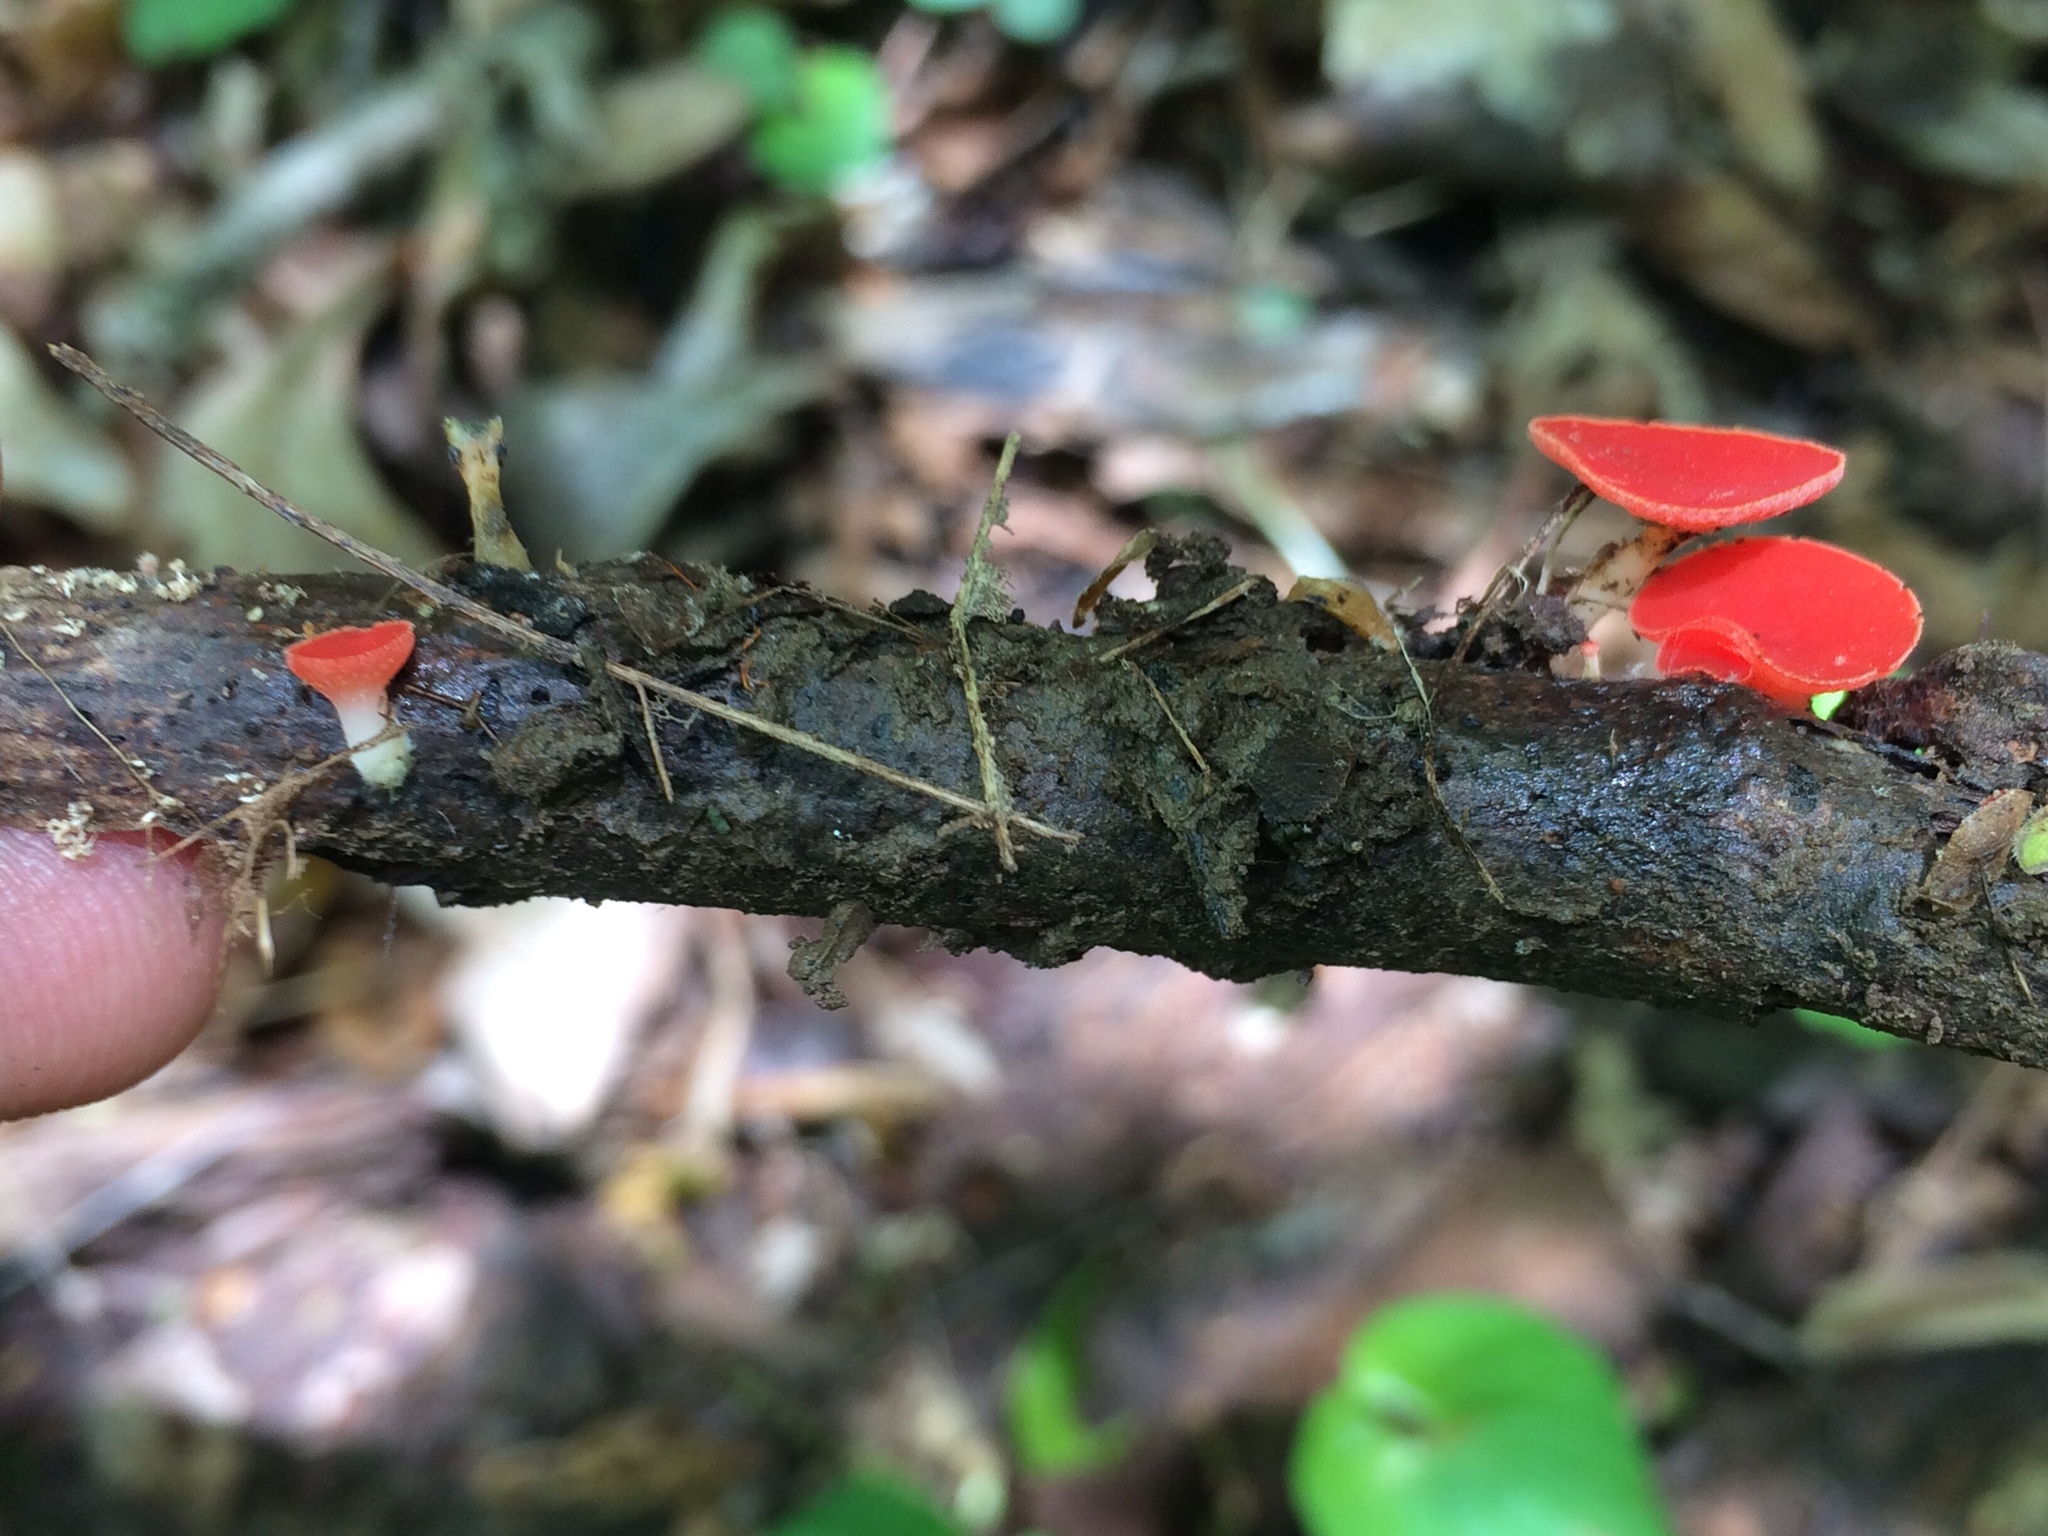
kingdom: Fungi
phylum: Ascomycota
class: Pezizomycetes
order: Pezizales
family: Sarcoscyphaceae
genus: Sarcoscypha
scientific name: Sarcoscypha occidentalis
